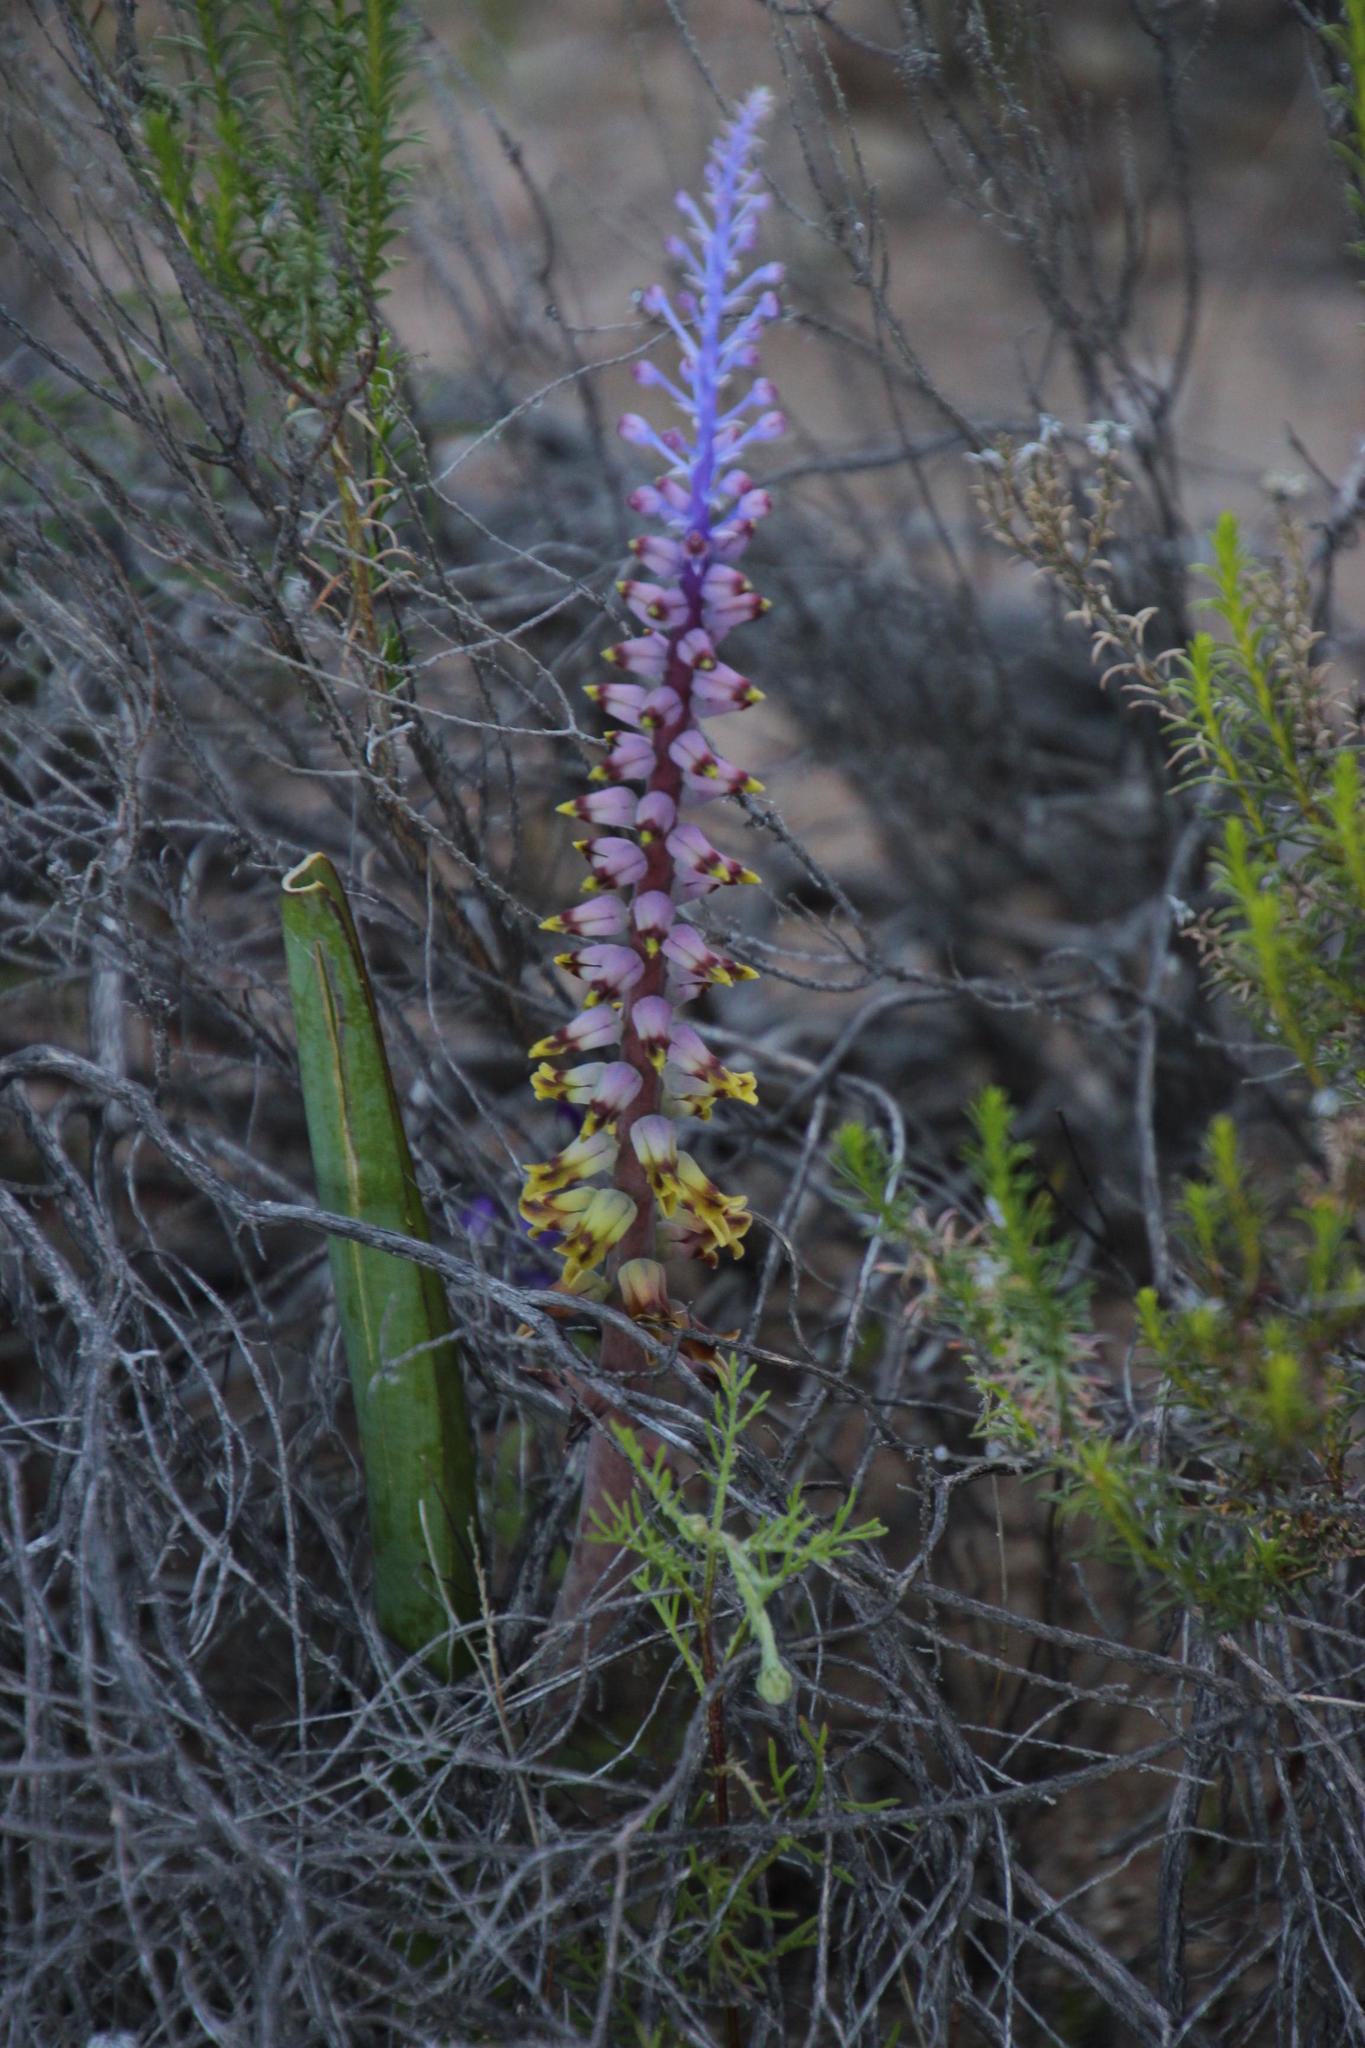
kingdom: Plantae
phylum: Tracheophyta
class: Liliopsida
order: Asparagales
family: Asparagaceae
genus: Lachenalia
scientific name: Lachenalia mutabilis
